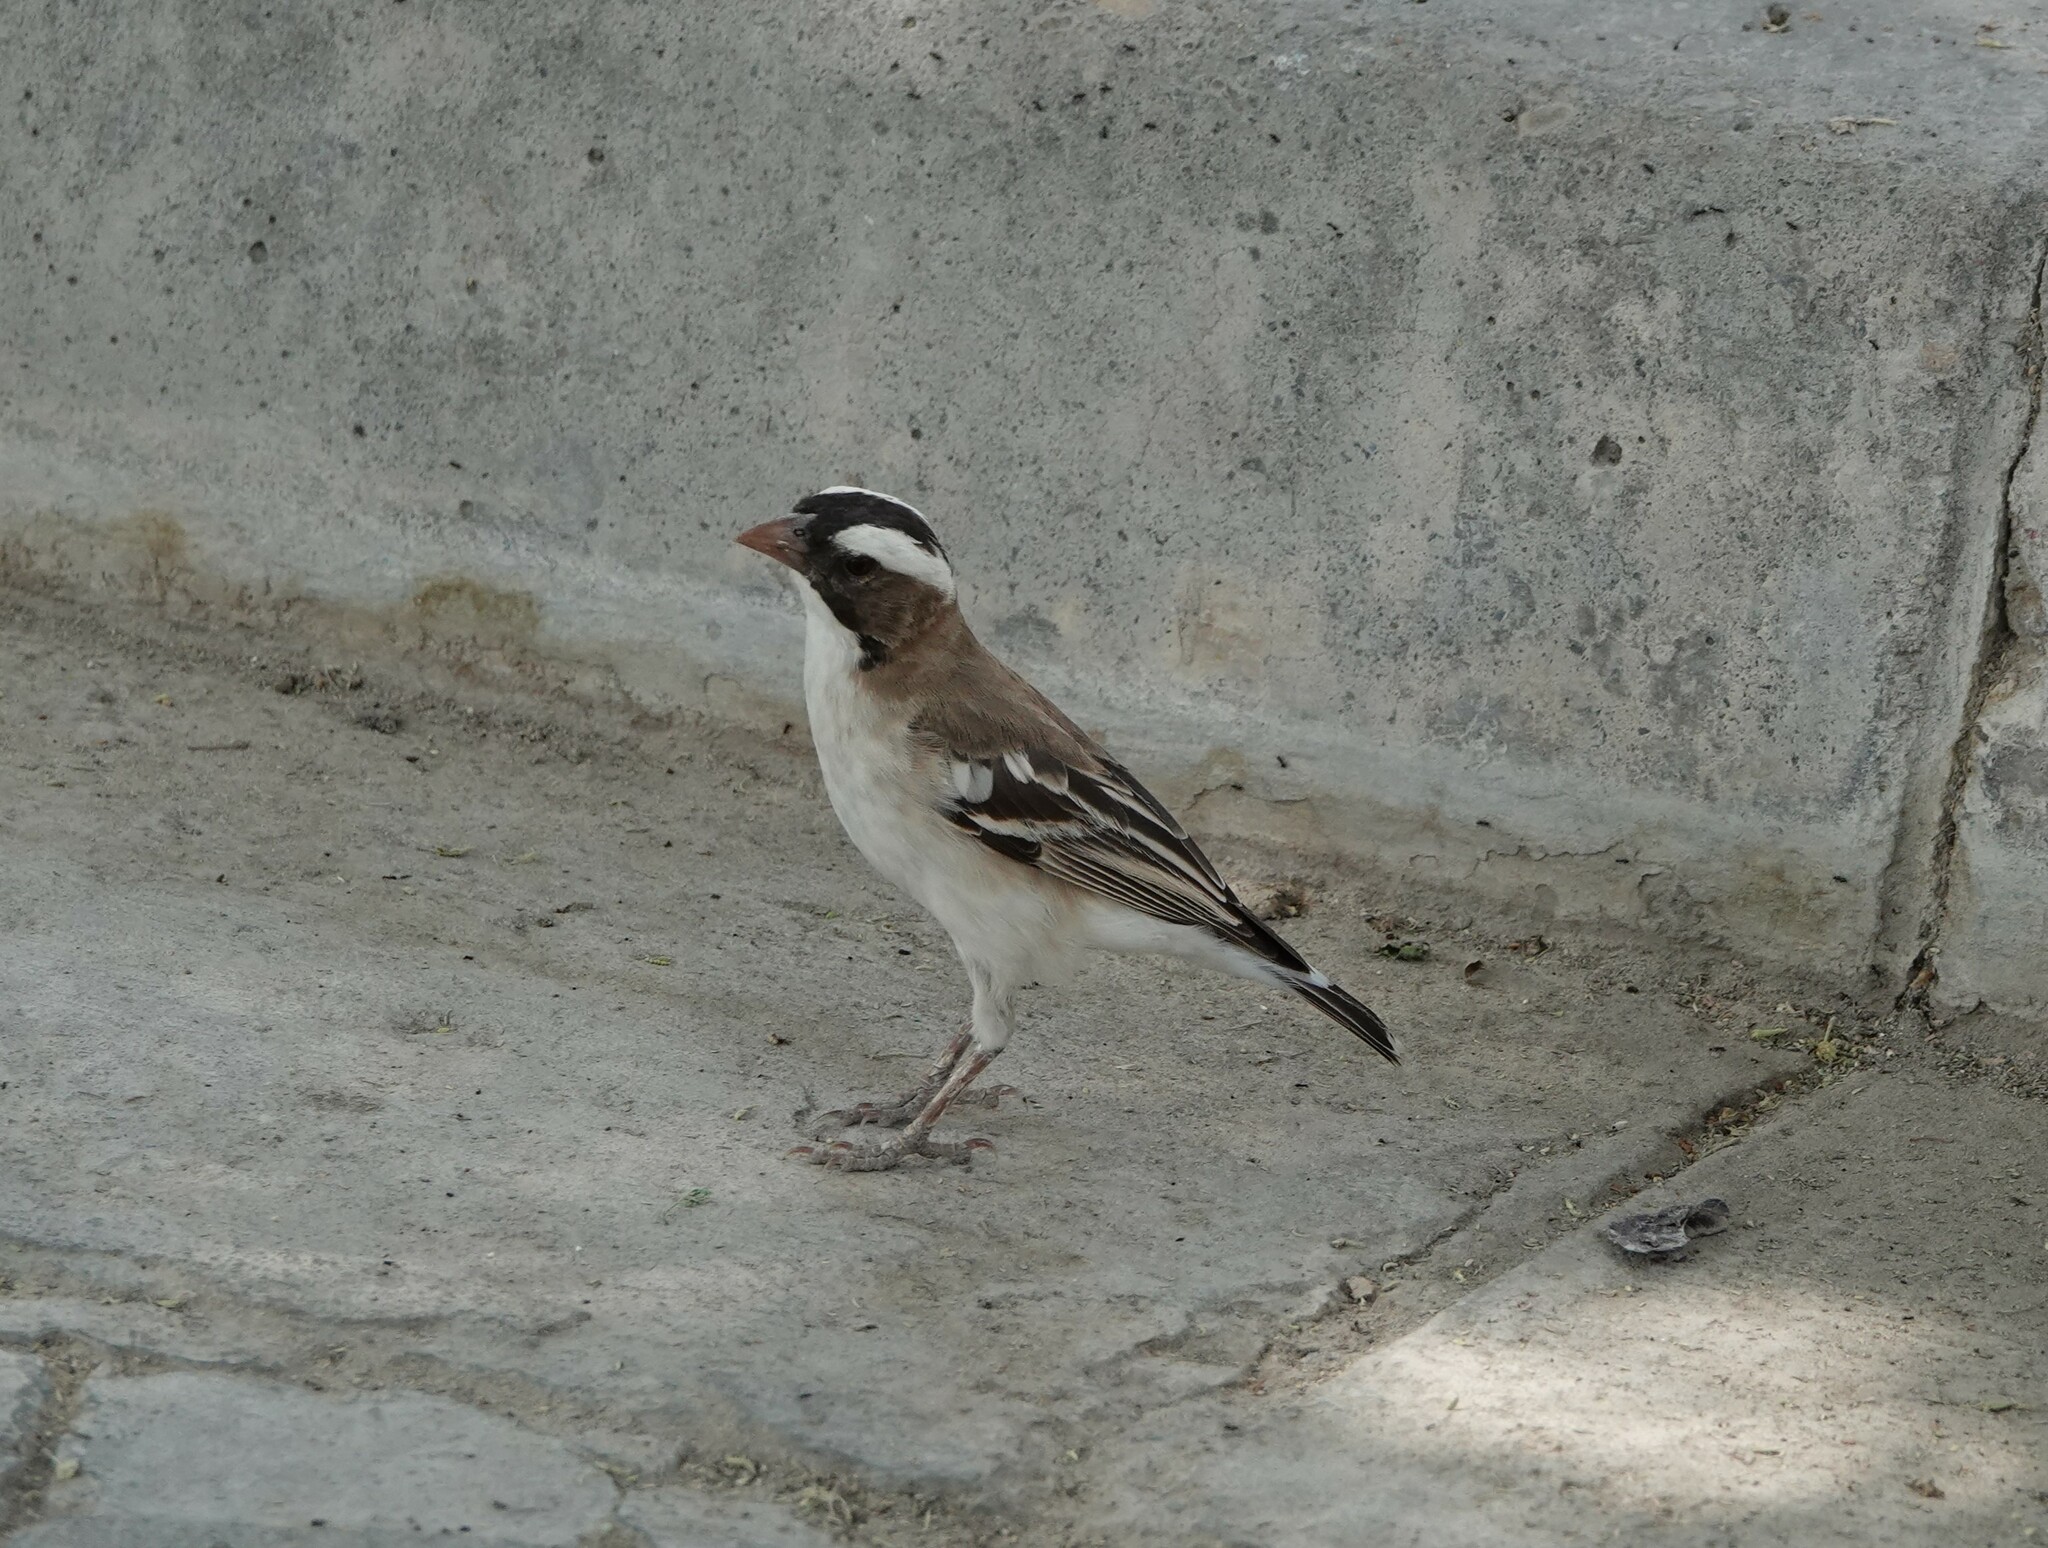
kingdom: Animalia
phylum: Chordata
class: Aves
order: Passeriformes
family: Passeridae
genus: Plocepasser
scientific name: Plocepasser mahali
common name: White-browed sparrow-weaver
